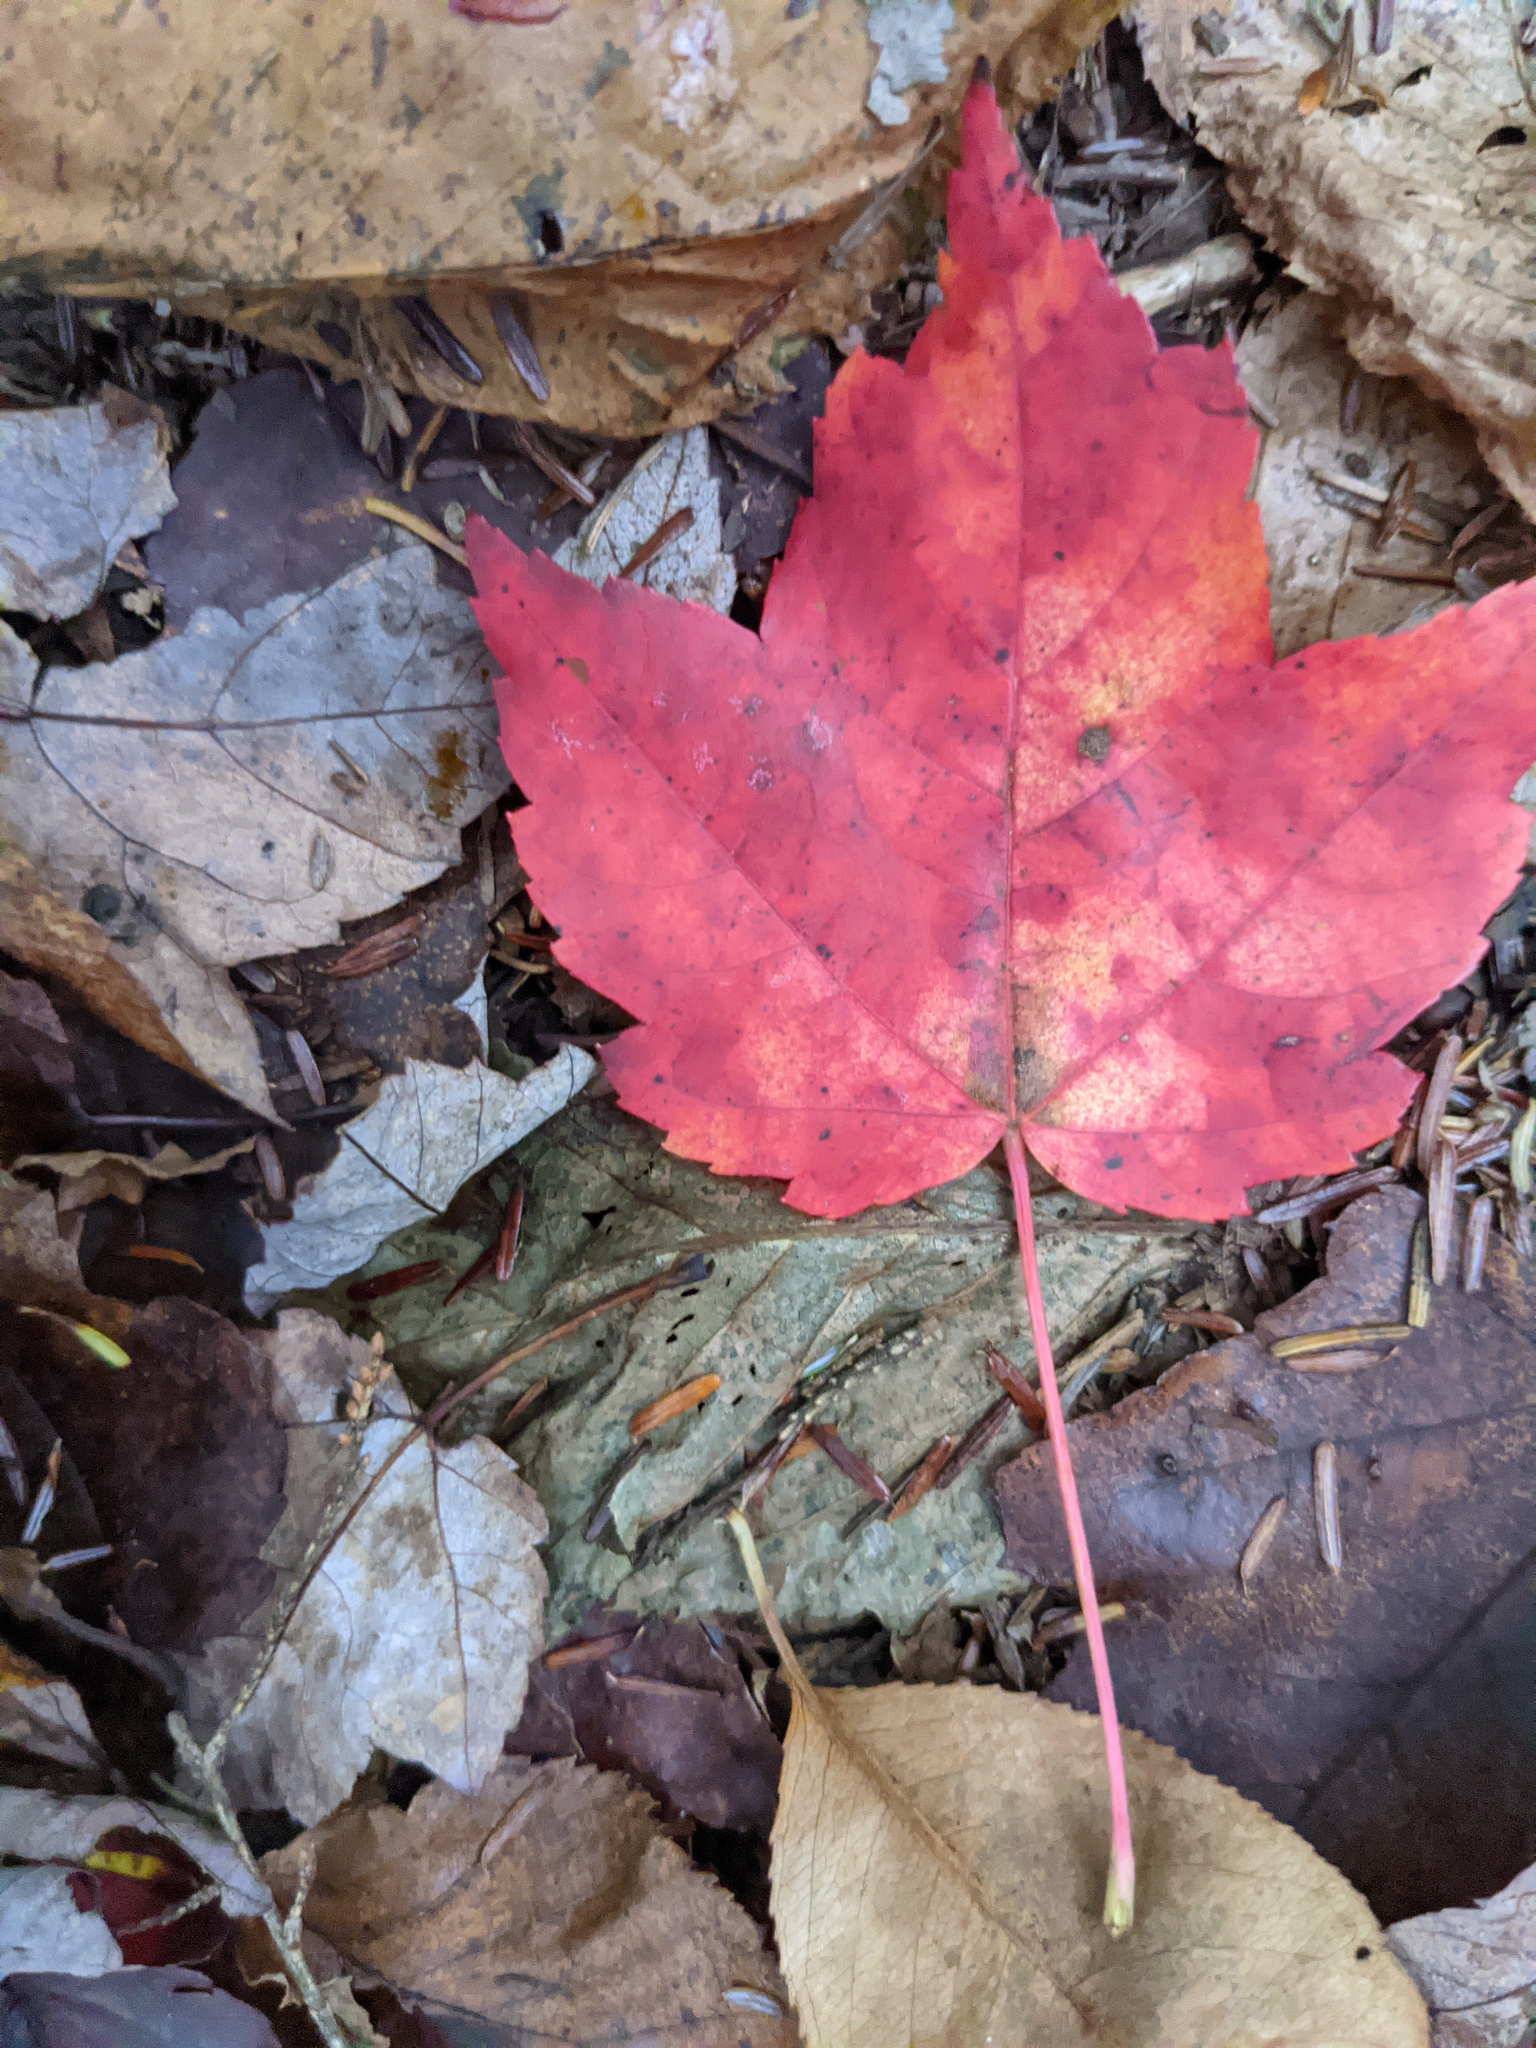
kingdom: Plantae
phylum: Tracheophyta
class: Magnoliopsida
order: Sapindales
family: Sapindaceae
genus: Acer
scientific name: Acer rubrum
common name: Red maple
